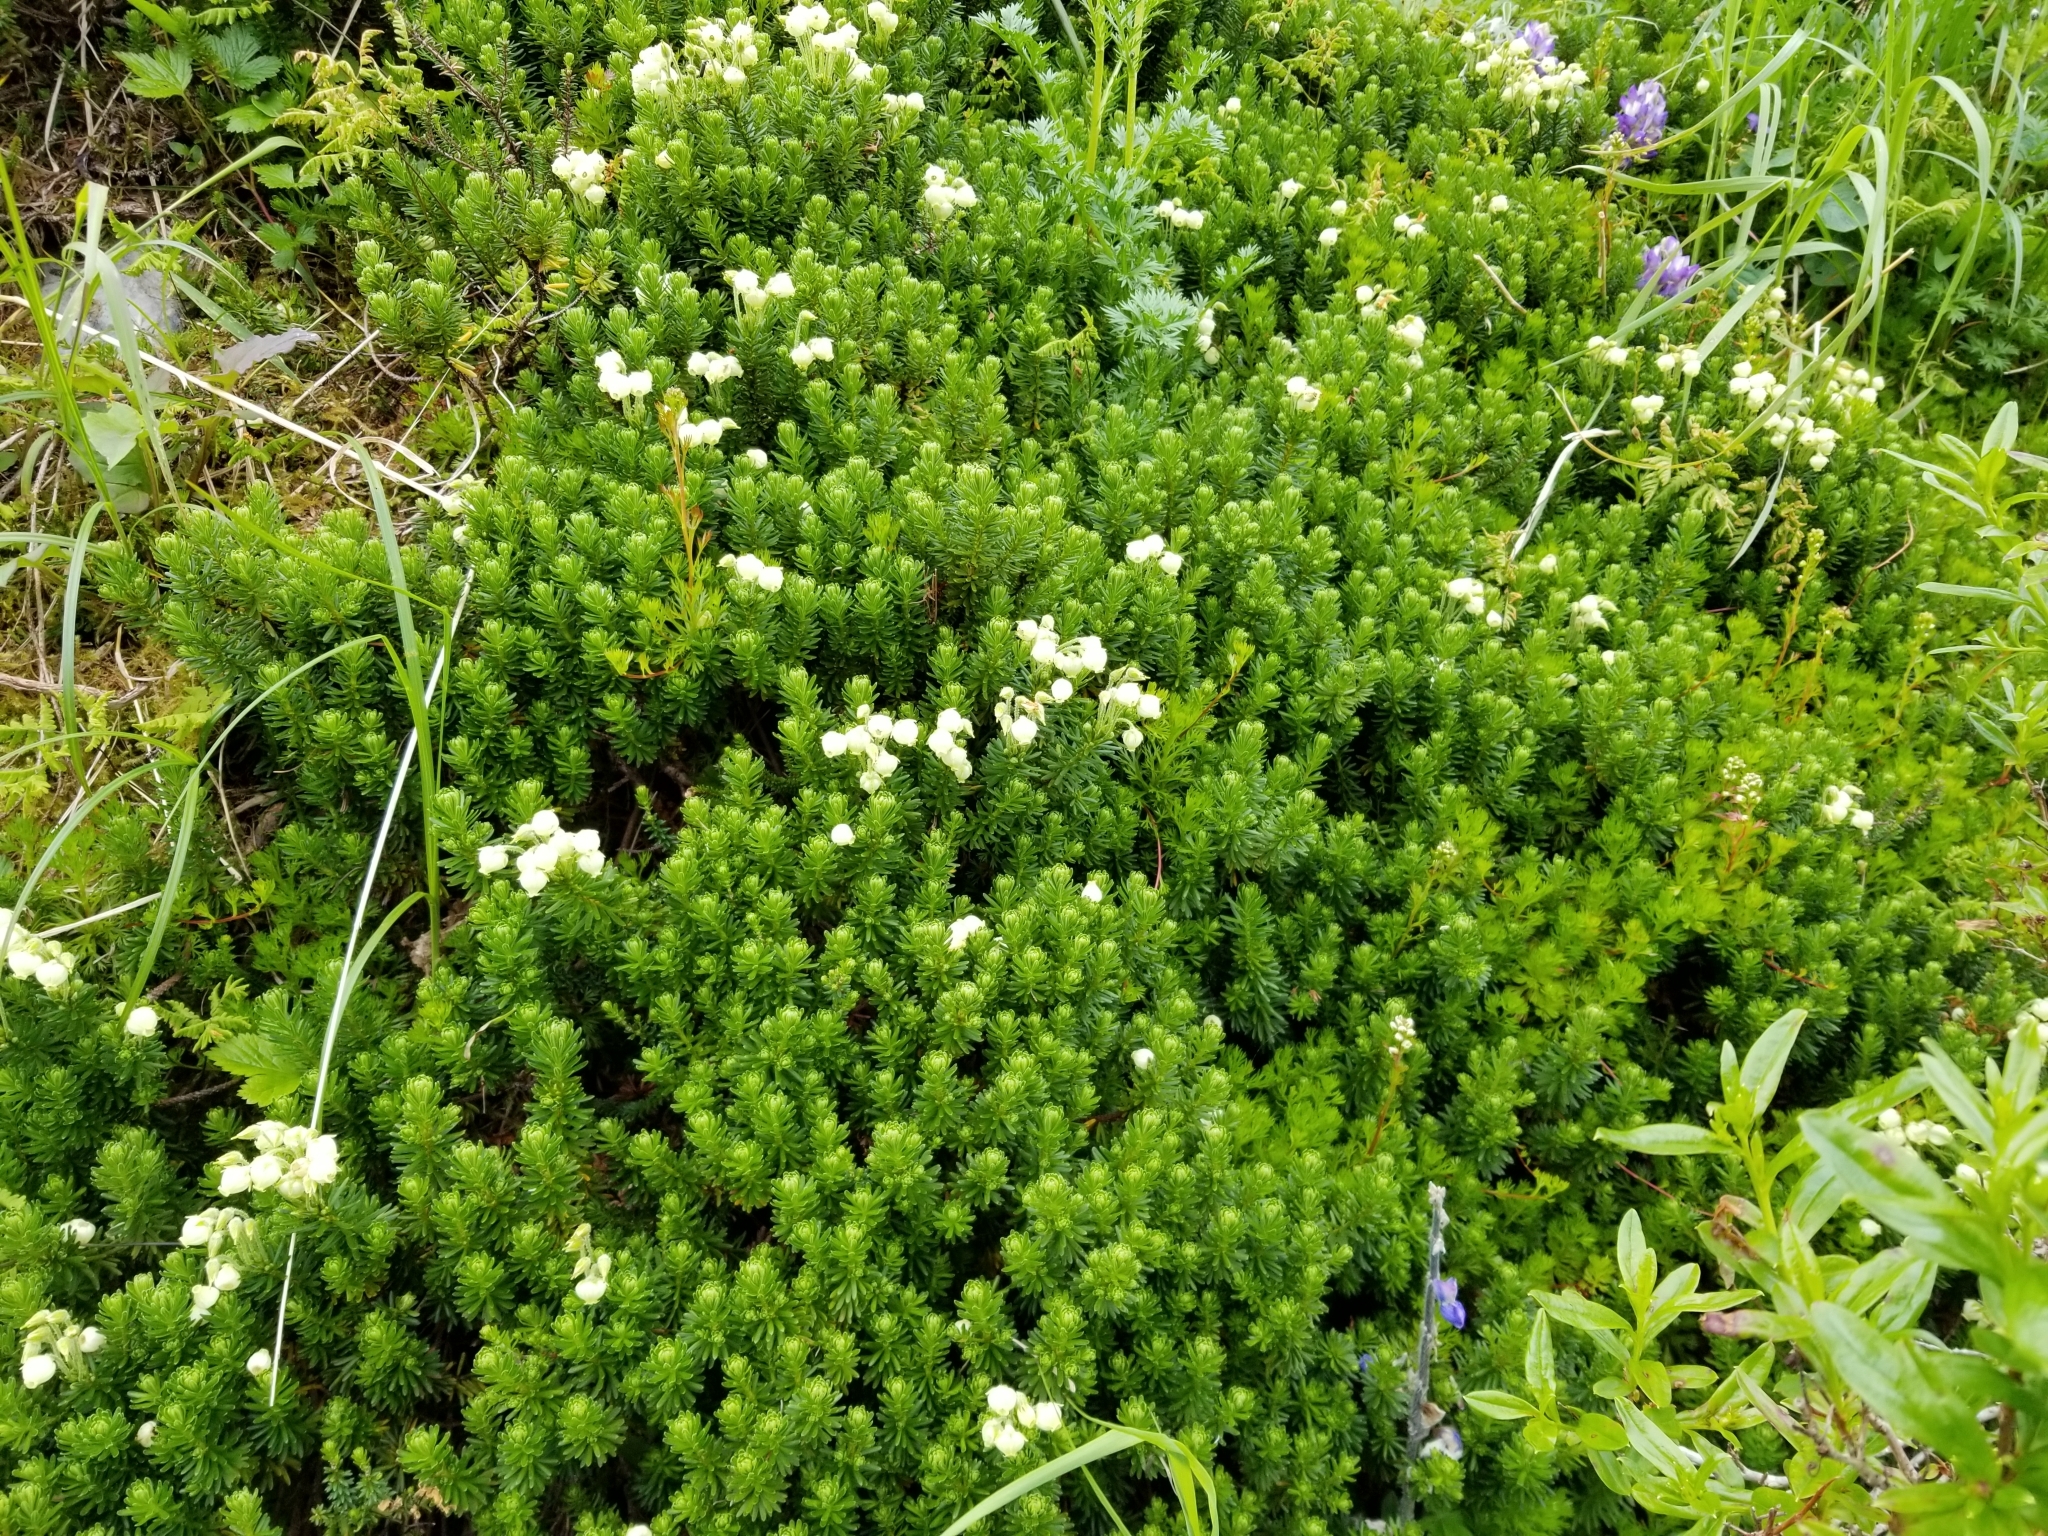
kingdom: Plantae
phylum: Tracheophyta
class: Magnoliopsida
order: Ericales
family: Ericaceae
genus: Phyllodoce
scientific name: Phyllodoce glanduliflora
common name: Cream mountain heather
